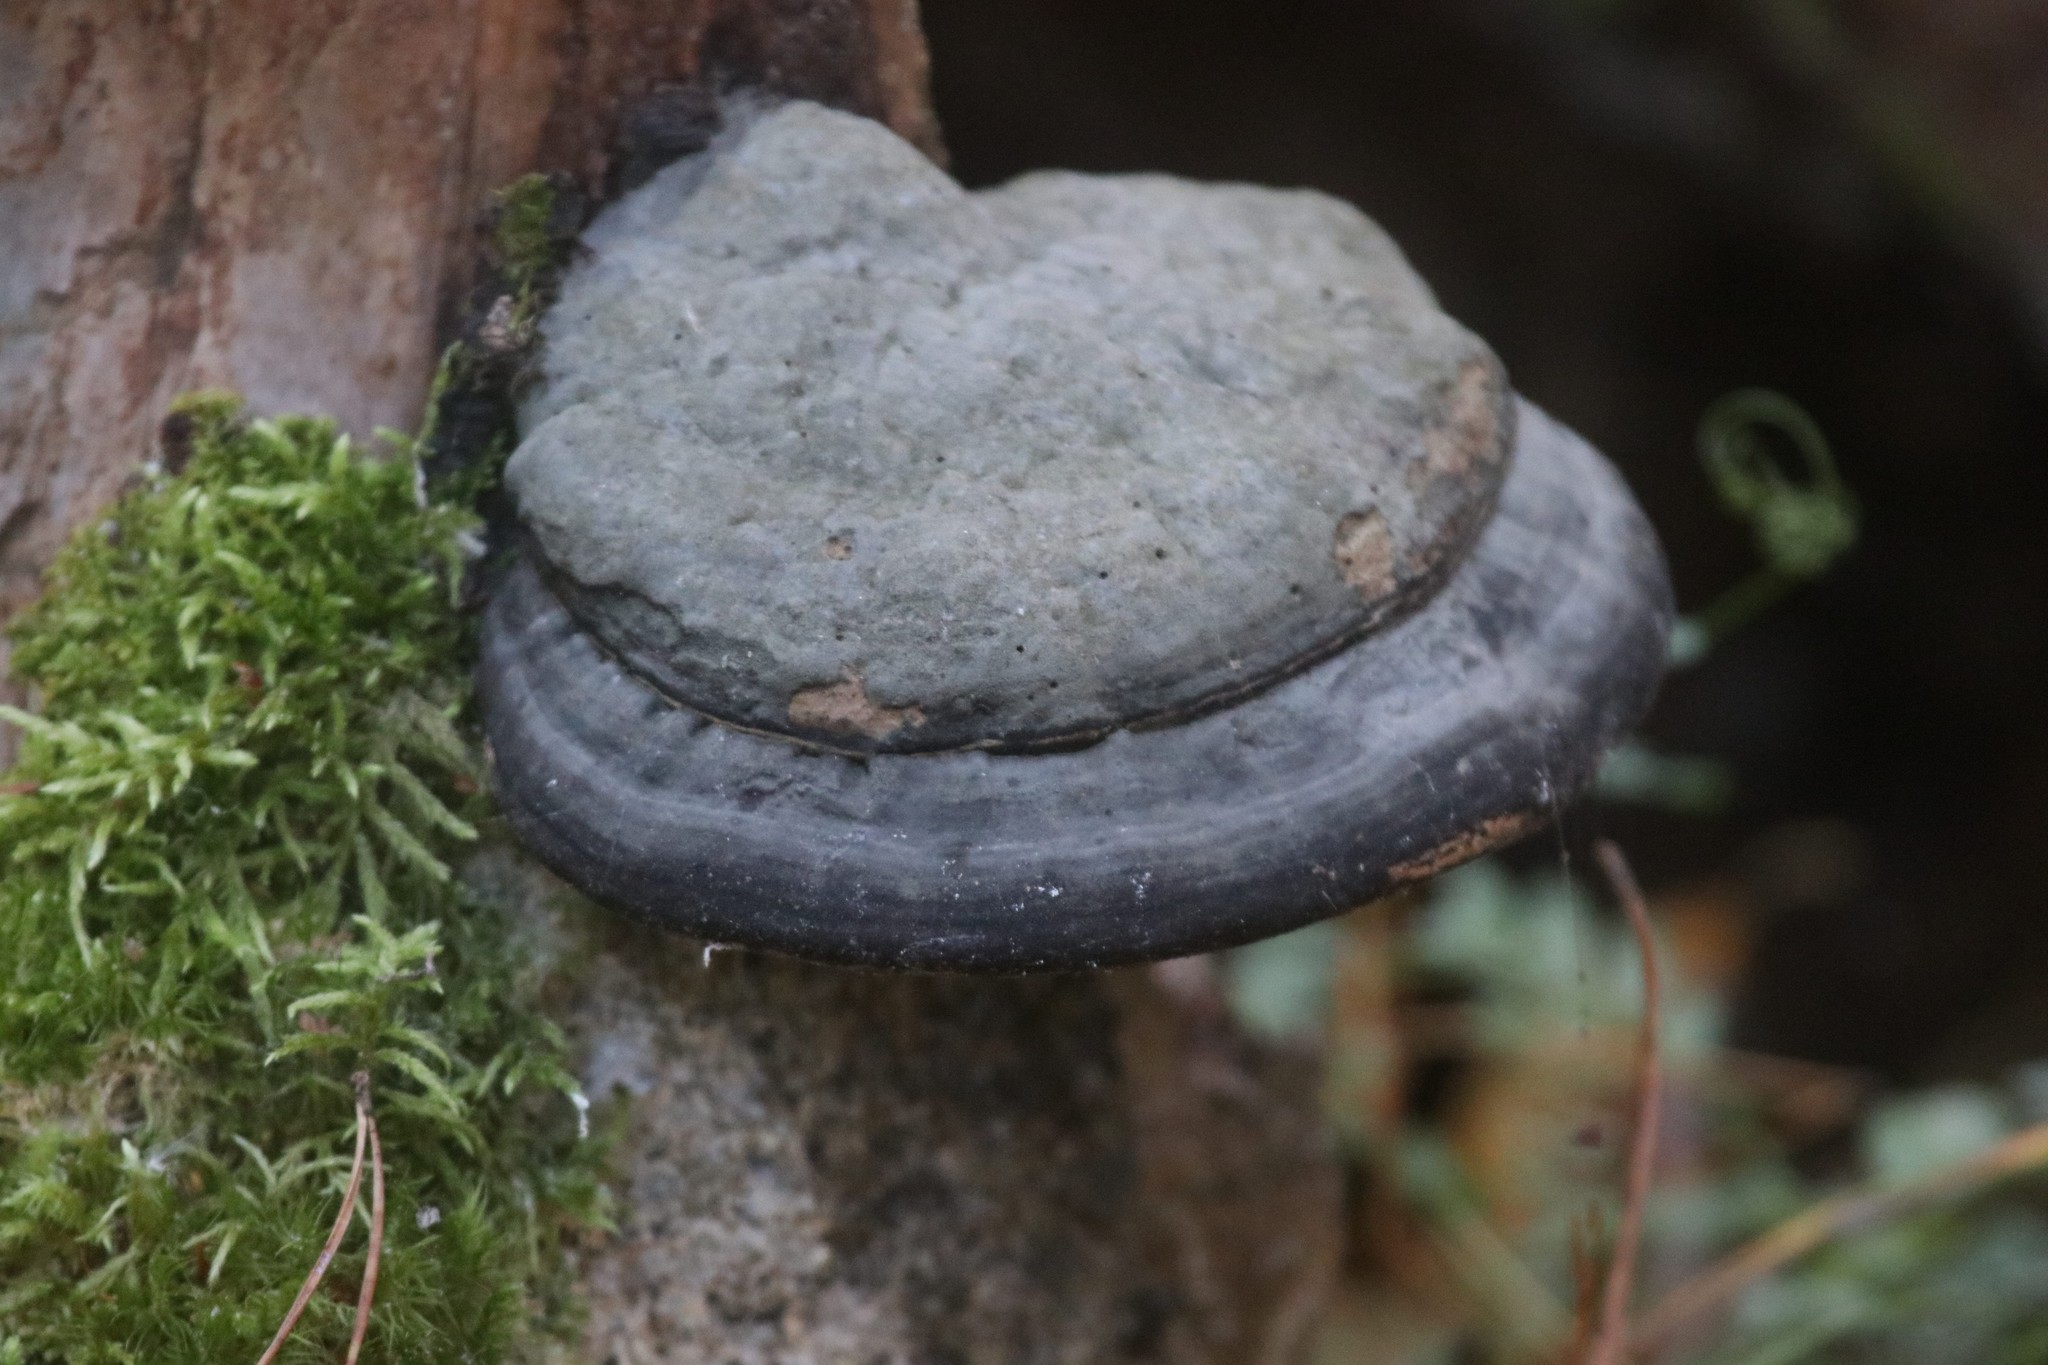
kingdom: Fungi
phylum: Basidiomycota
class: Agaricomycetes
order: Polyporales
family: Fomitopsidaceae
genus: Fomitopsis
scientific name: Fomitopsis pinicola
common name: Red-belted bracket
